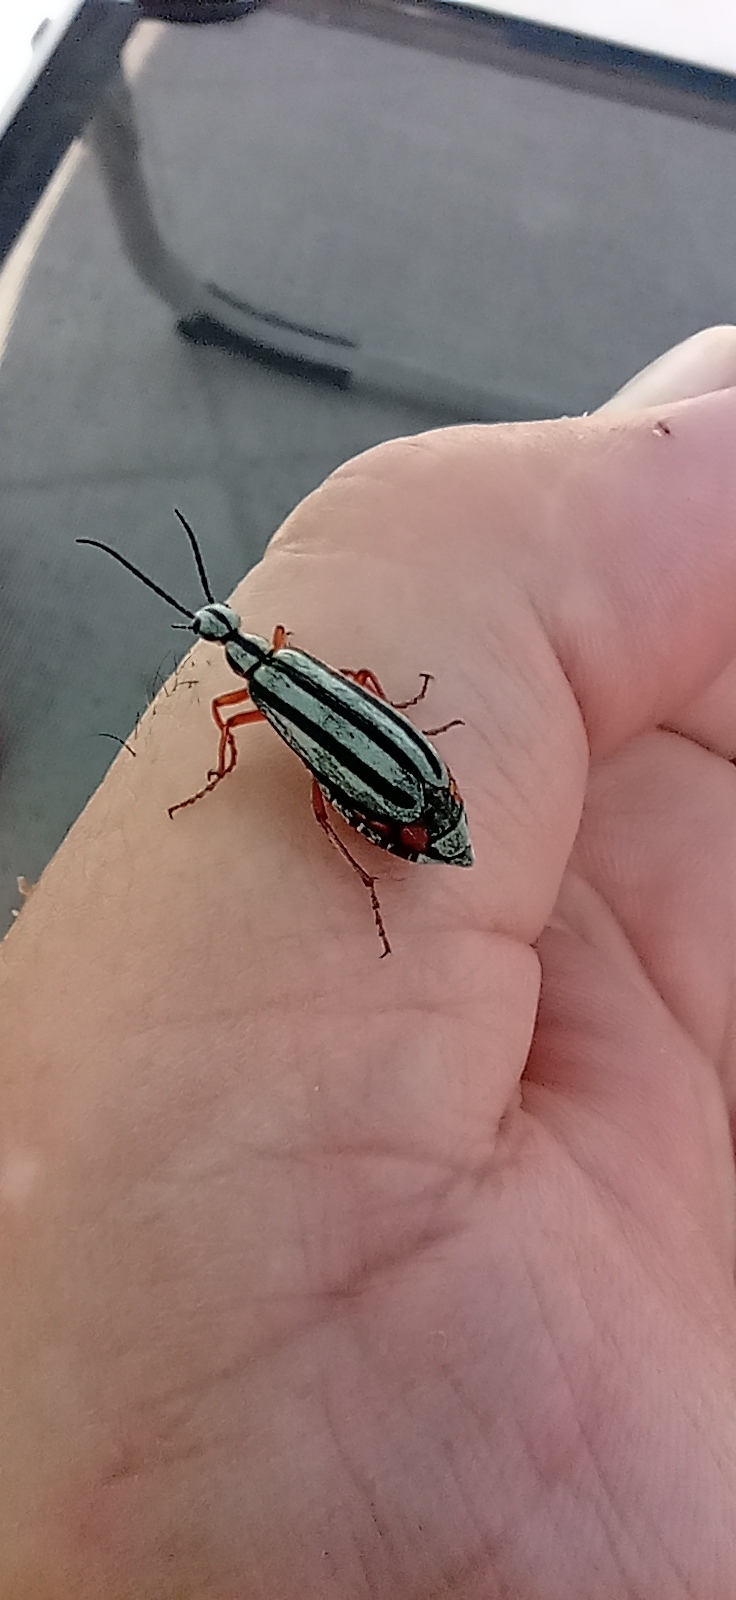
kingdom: Animalia
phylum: Arthropoda
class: Insecta
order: Coleoptera
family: Meloidae
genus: Epicauta
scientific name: Epicauta
